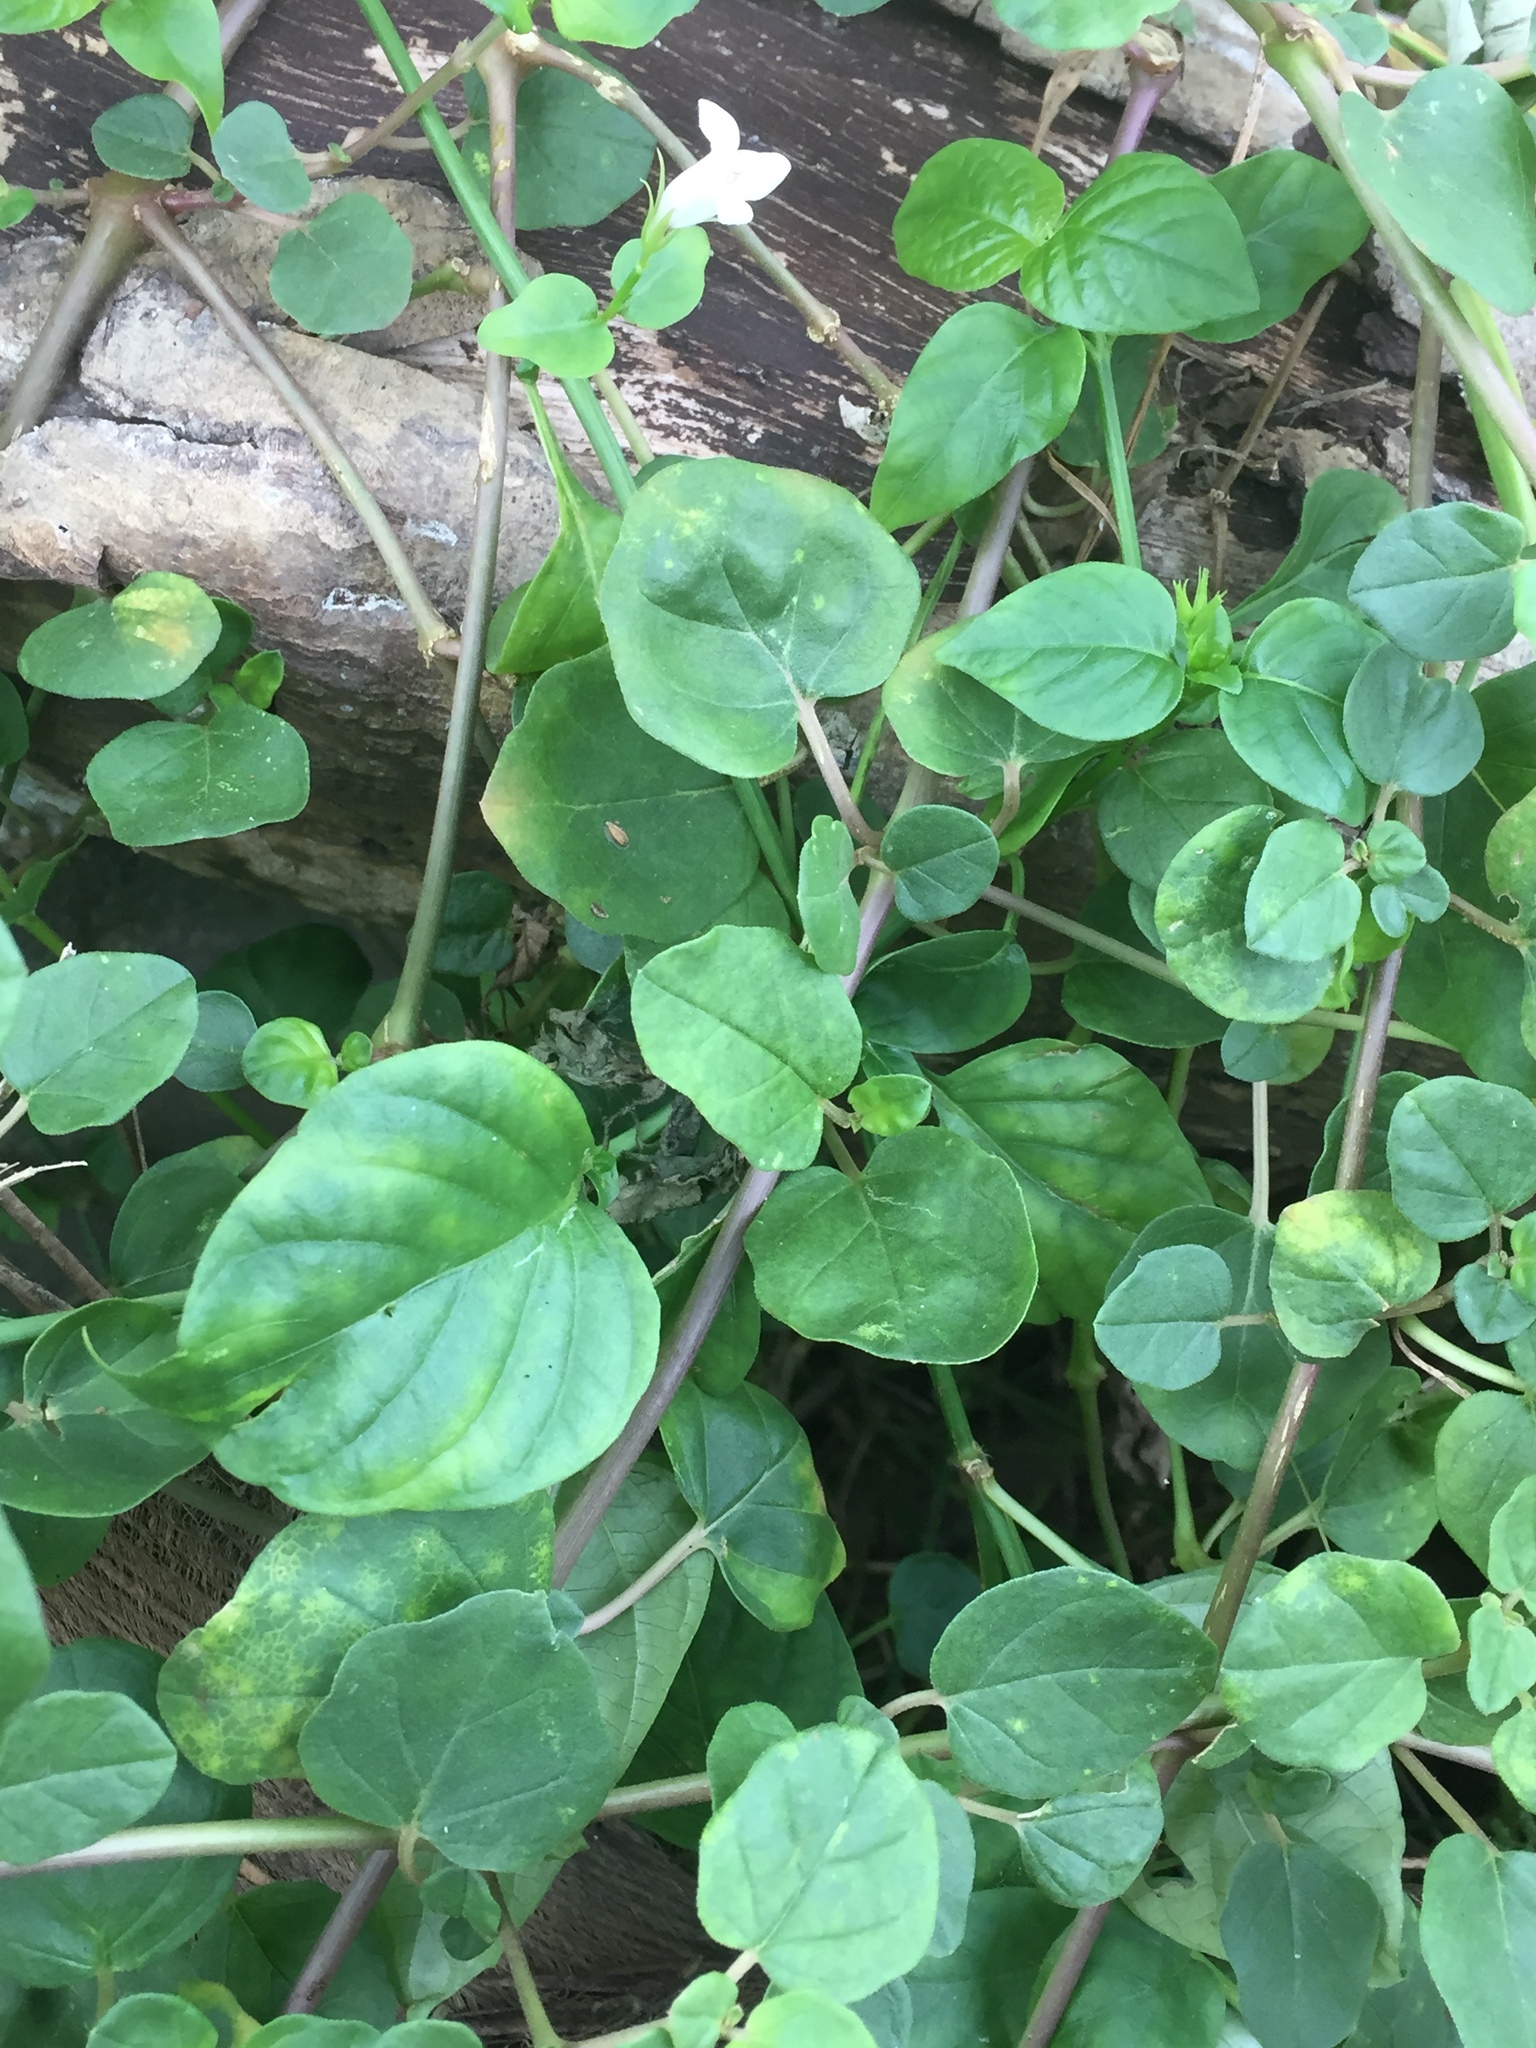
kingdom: Plantae
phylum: Tracheophyta
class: Magnoliopsida
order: Lamiales
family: Acanthaceae
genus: Asystasia
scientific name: Asystasia gangetica
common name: Chinese violet
